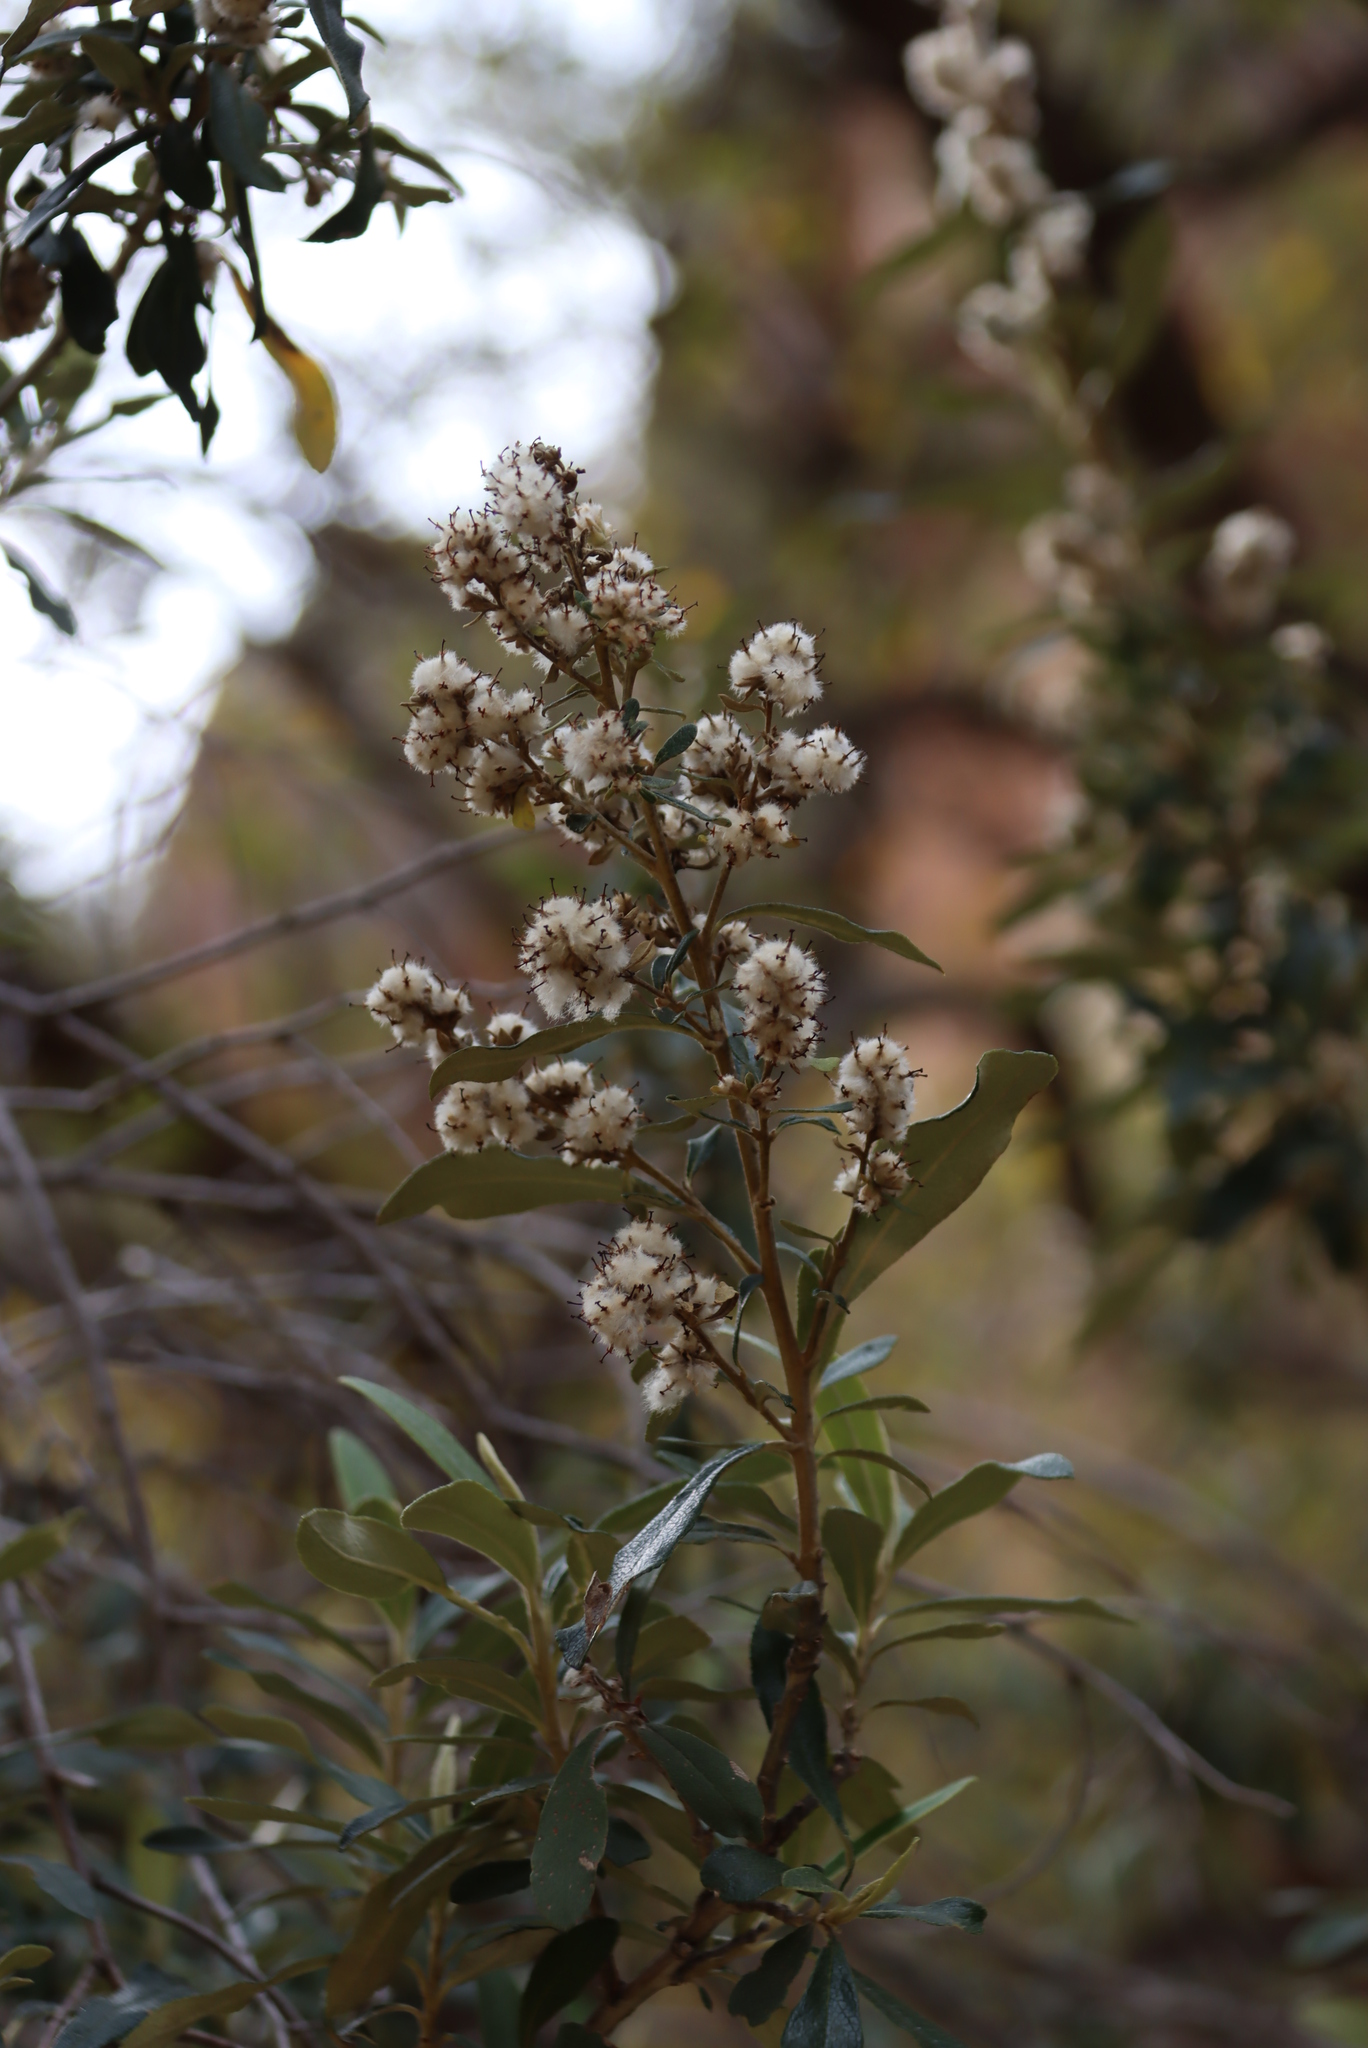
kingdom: Plantae
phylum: Tracheophyta
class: Magnoliopsida
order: Asterales
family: Asteraceae
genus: Tarchonanthus
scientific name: Tarchonanthus littoralis
